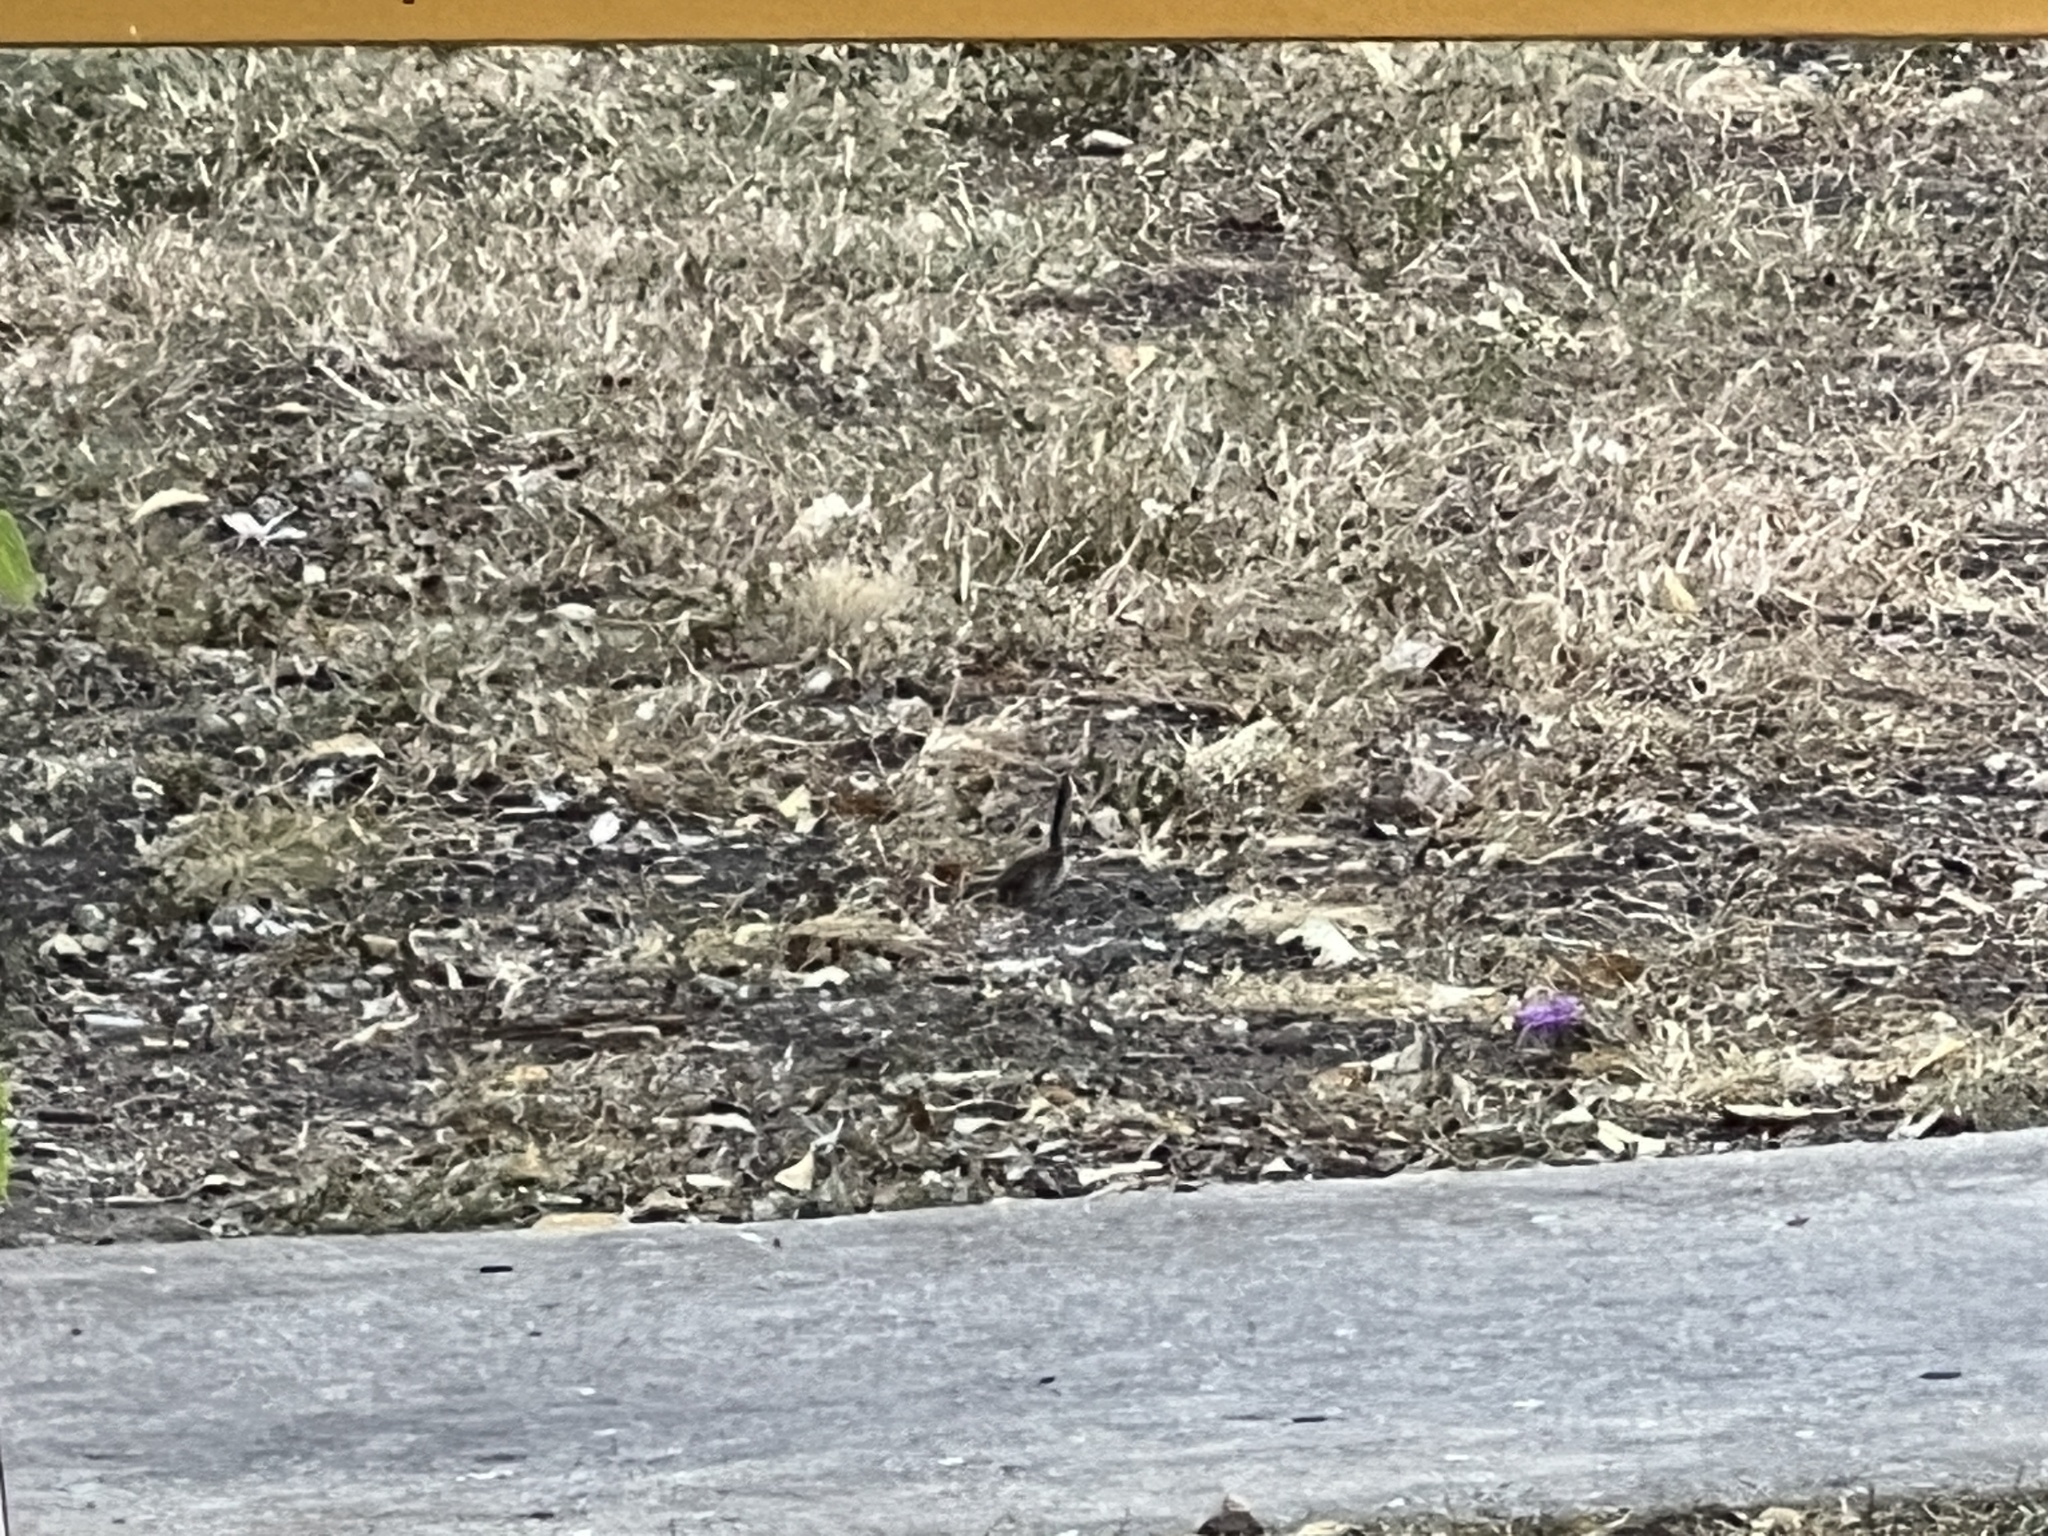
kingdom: Animalia
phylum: Chordata
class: Aves
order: Passeriformes
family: Troglodytidae
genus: Thryomanes
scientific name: Thryomanes bewickii
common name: Bewick's wren
